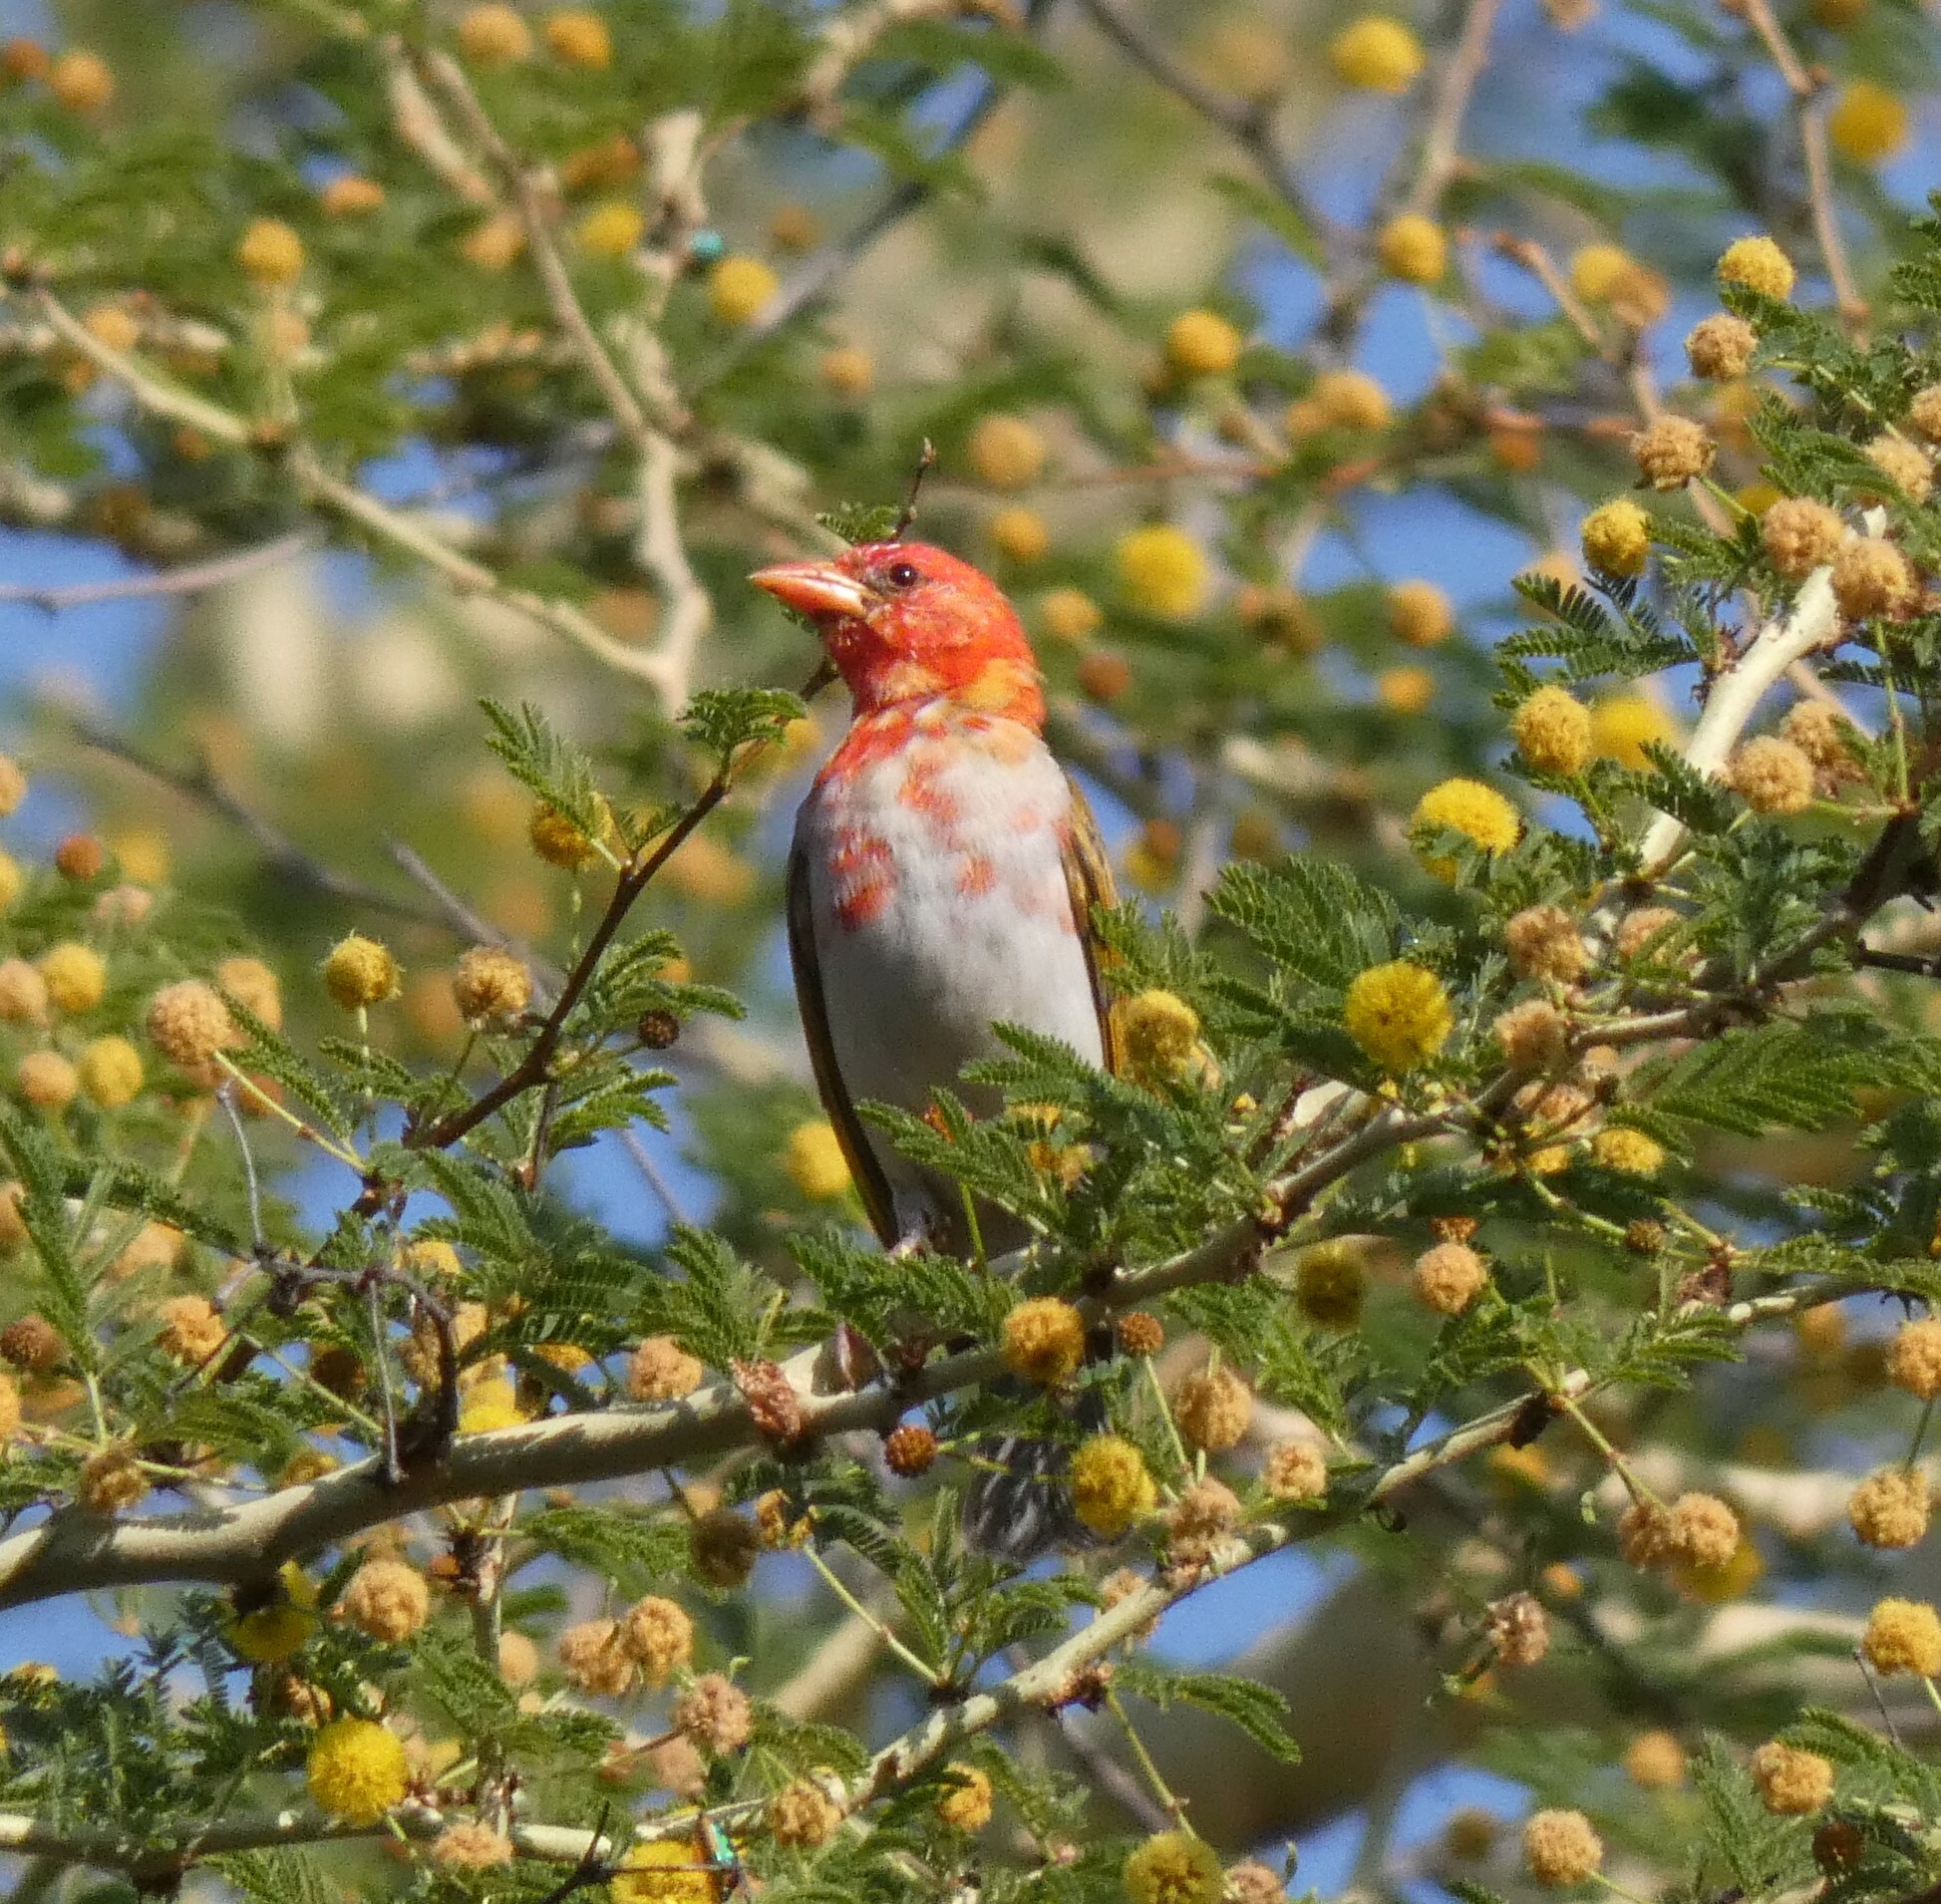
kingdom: Animalia
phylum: Chordata
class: Aves
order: Passeriformes
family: Ploceidae
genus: Anaplectes
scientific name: Anaplectes rubriceps
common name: Red-headed weaver
